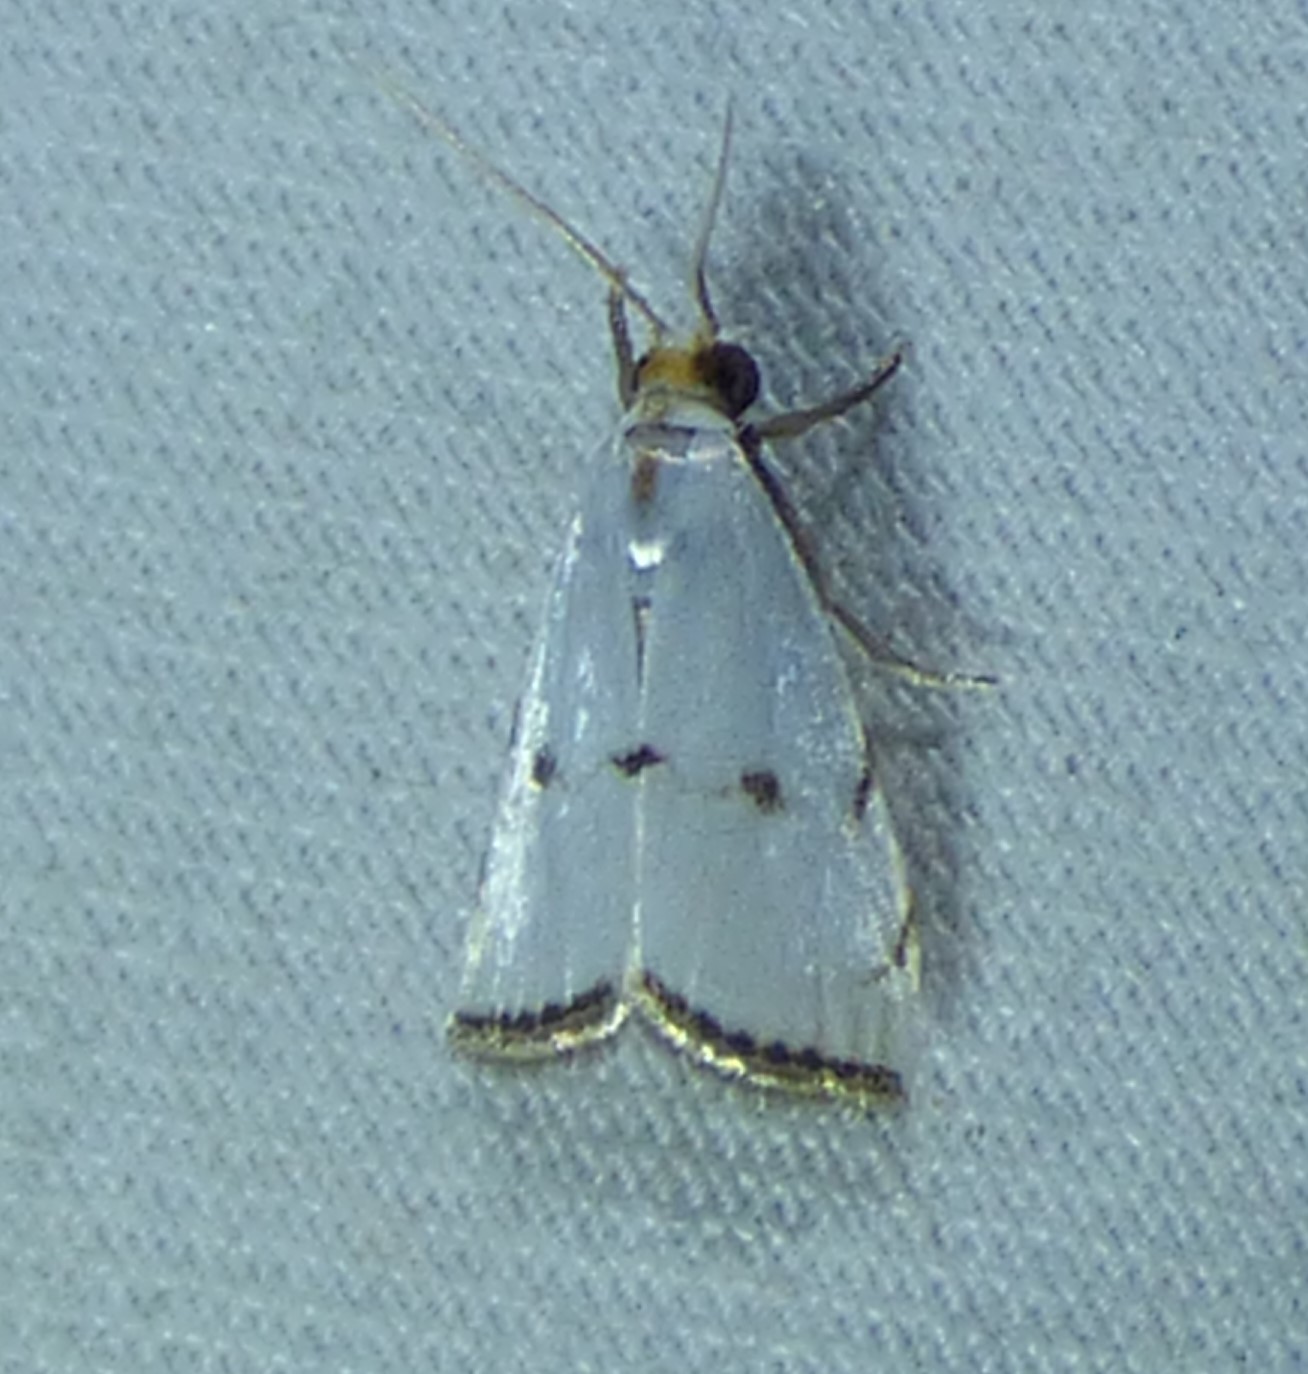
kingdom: Animalia
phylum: Arthropoda
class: Insecta
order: Lepidoptera
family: Crambidae
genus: Argyria
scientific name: Argyria pusillalis
